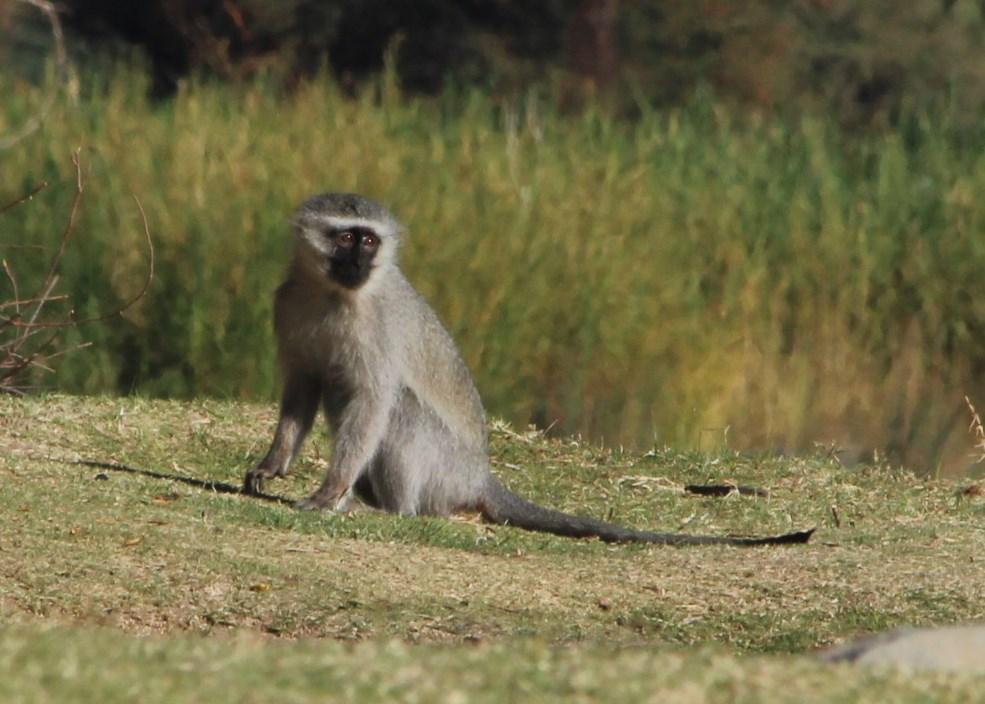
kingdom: Animalia
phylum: Chordata
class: Mammalia
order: Primates
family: Cercopithecidae
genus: Chlorocebus
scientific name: Chlorocebus pygerythrus
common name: Vervet monkey
